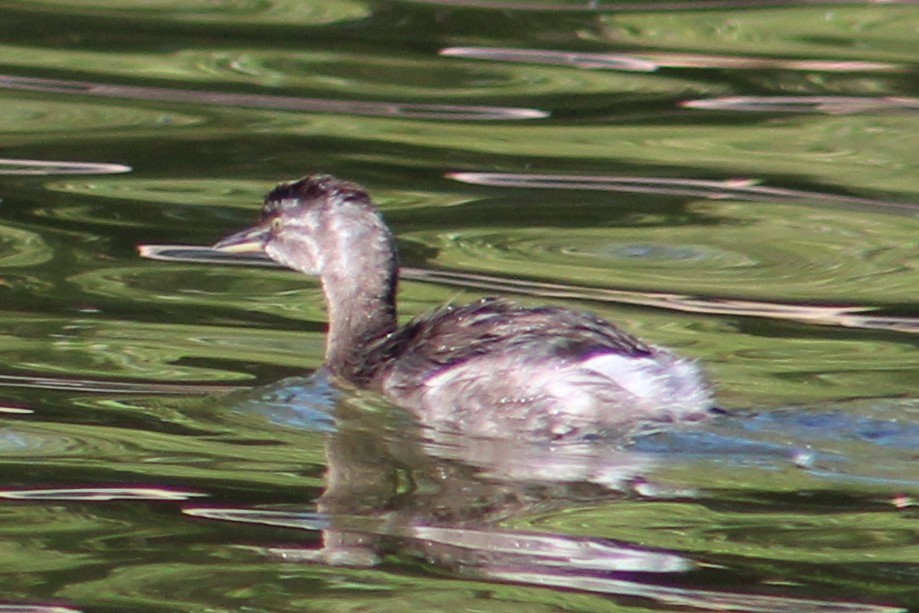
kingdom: Animalia
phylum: Chordata
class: Aves
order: Podicipediformes
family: Podicipedidae
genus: Tachybaptus
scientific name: Tachybaptus dominicus
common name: Least grebe
